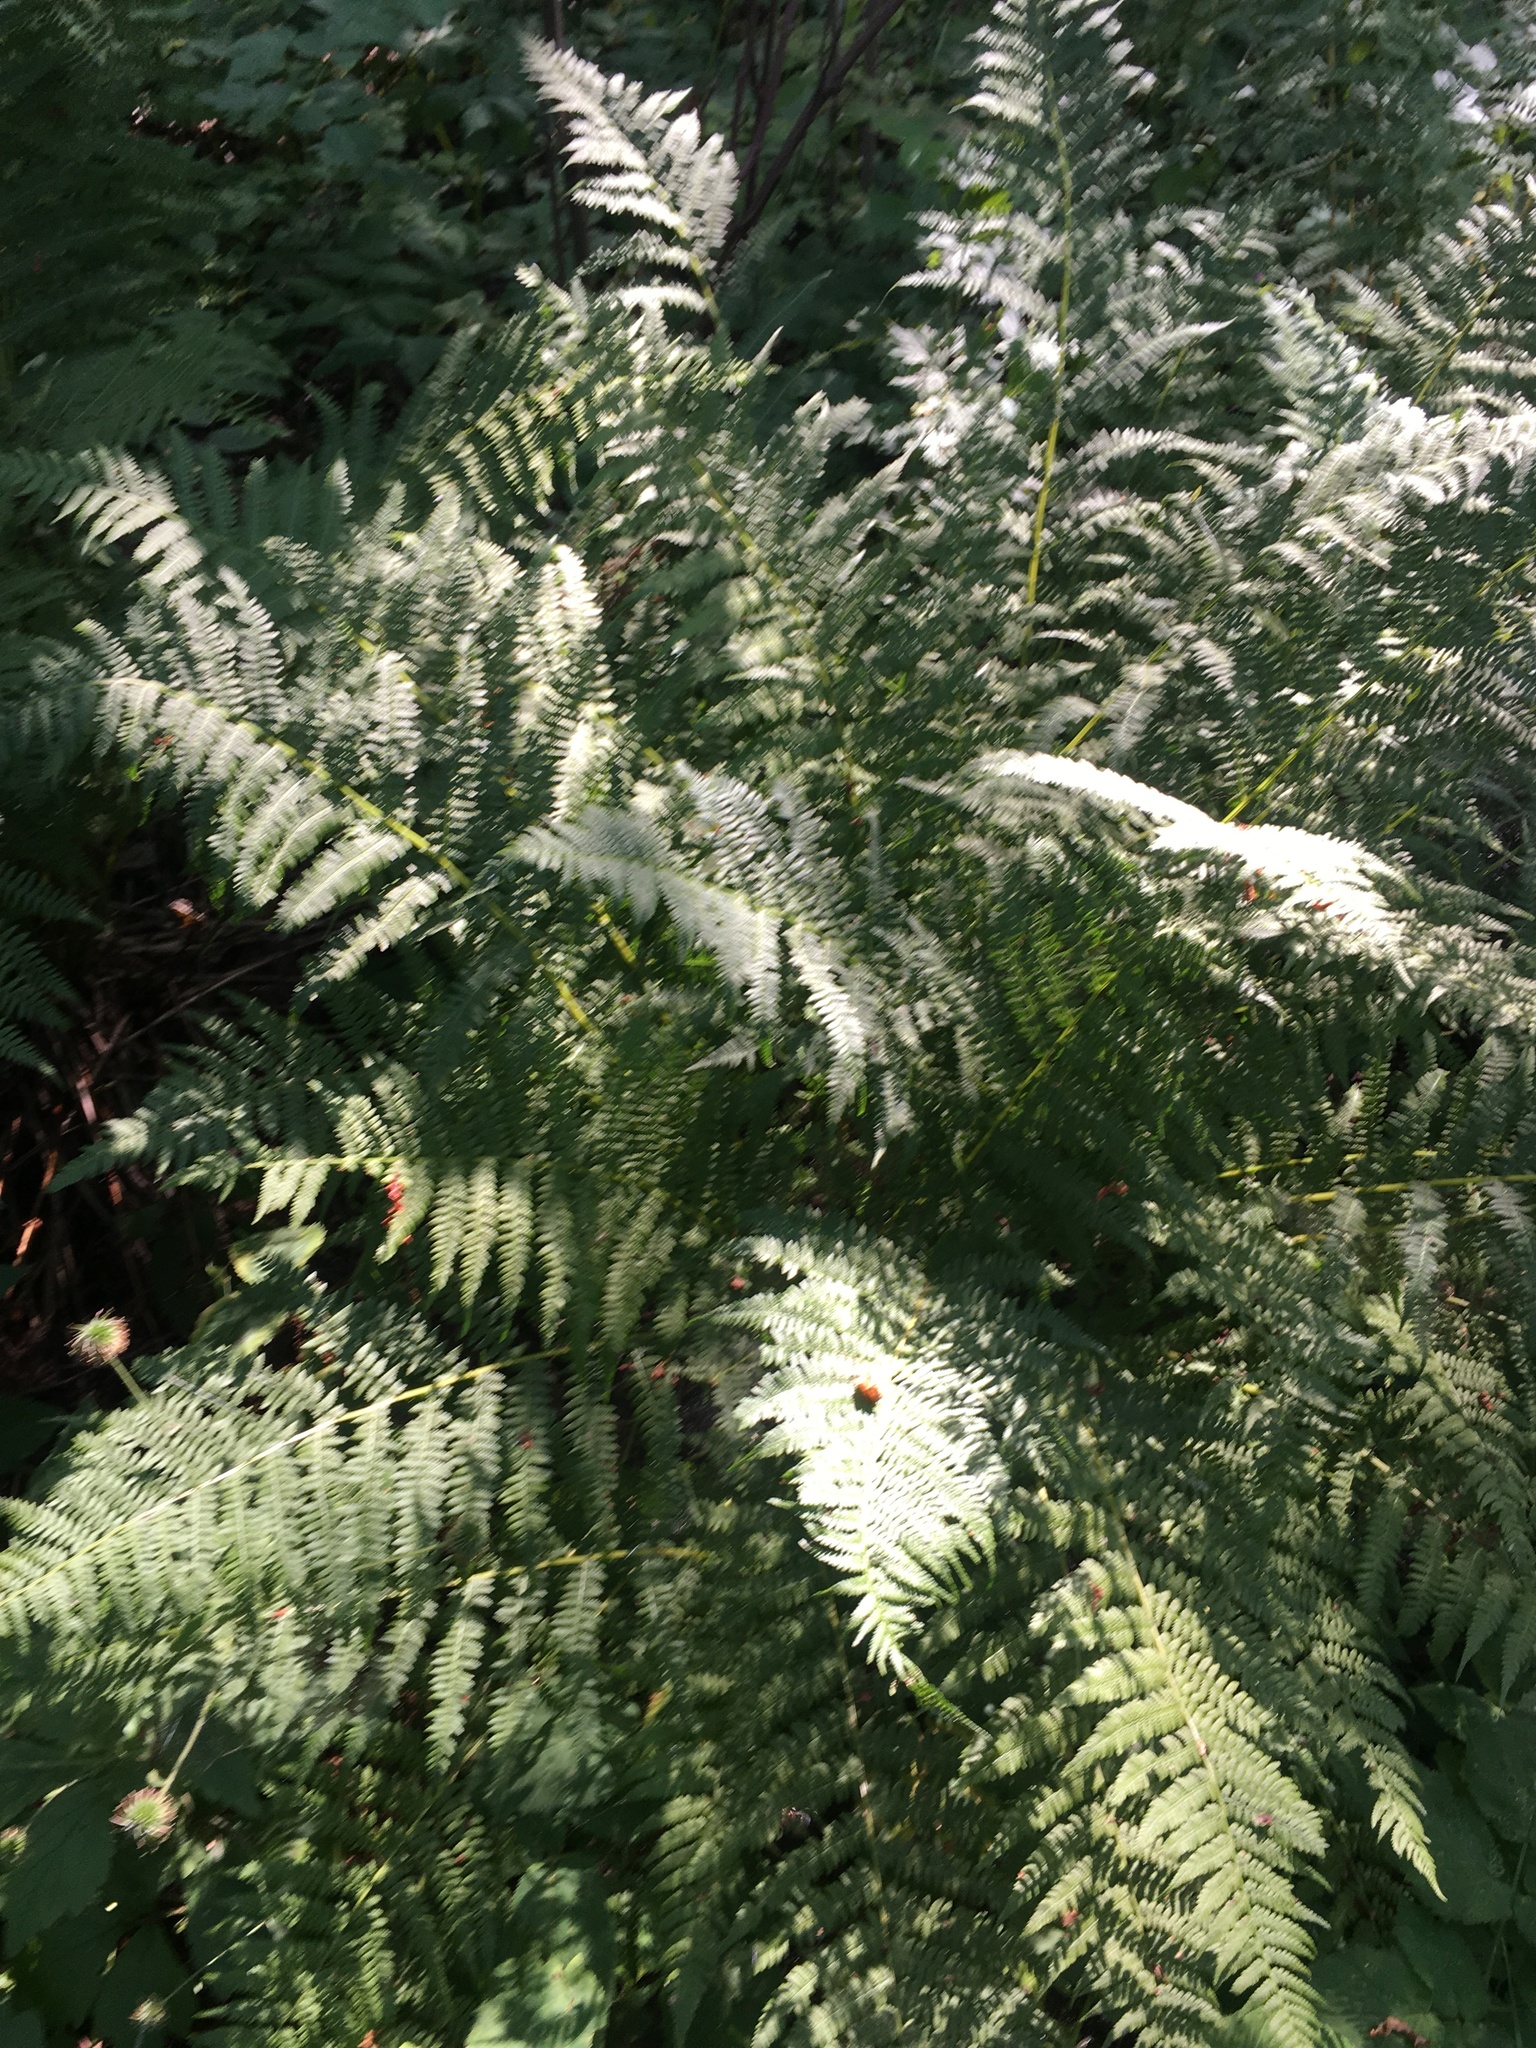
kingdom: Plantae
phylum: Tracheophyta
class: Polypodiopsida
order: Polypodiales
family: Athyriaceae
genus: Athyrium
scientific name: Athyrium filix-femina
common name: Lady fern
